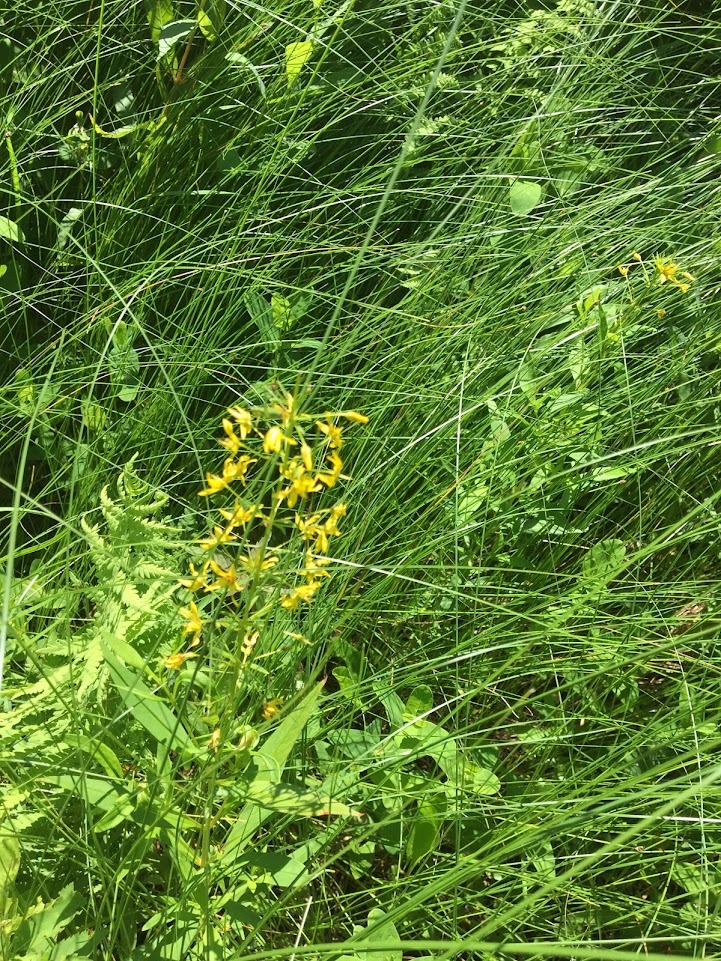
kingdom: Plantae
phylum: Tracheophyta
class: Magnoliopsida
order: Ericales
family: Primulaceae
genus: Lysimachia
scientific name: Lysimachia terrestris
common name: Lake loosestrife
